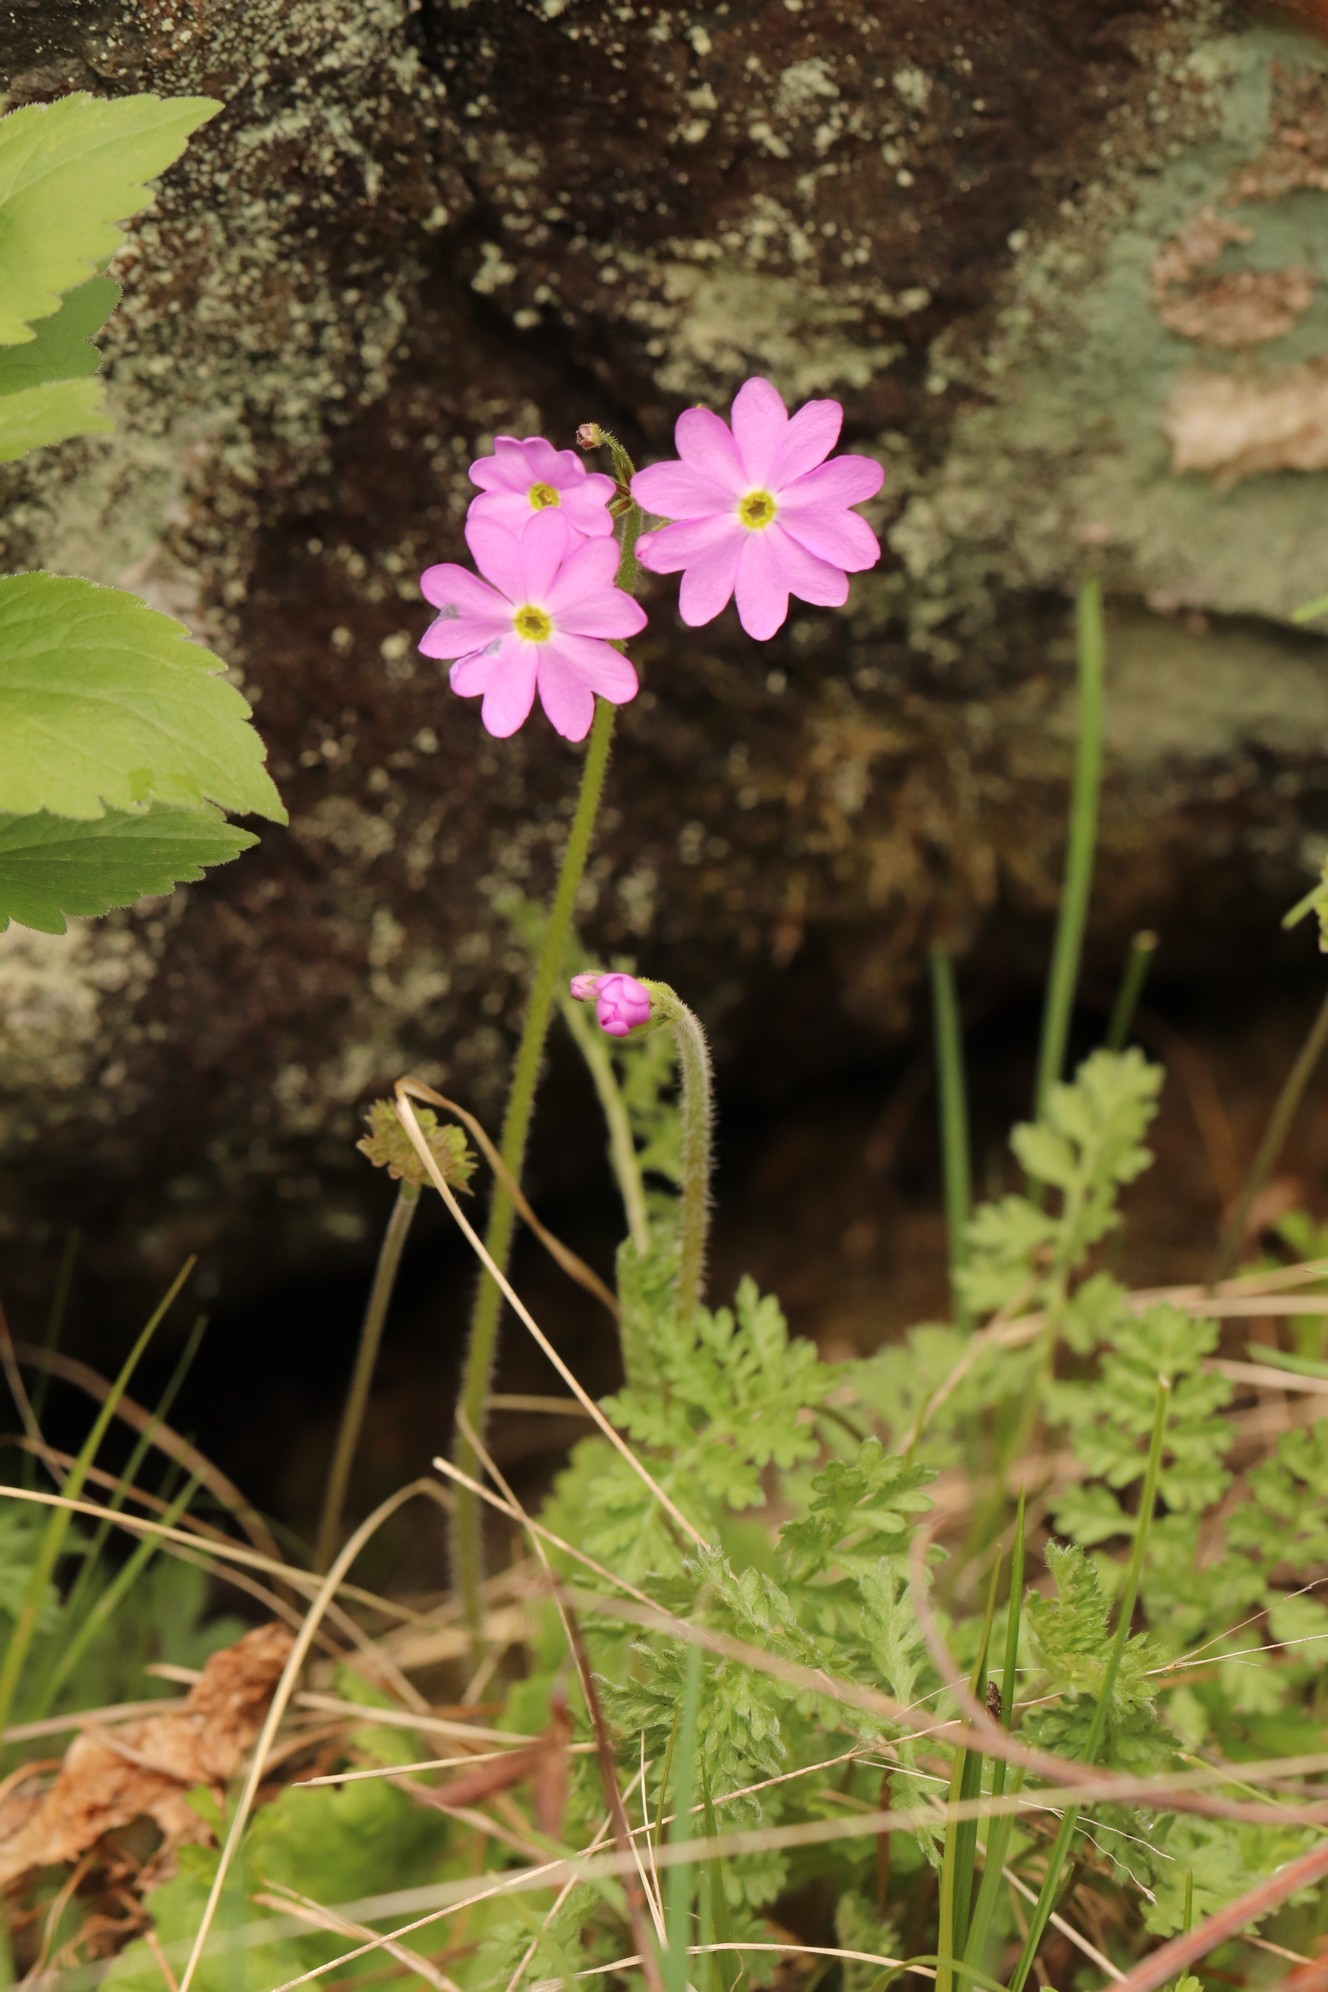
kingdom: Plantae
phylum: Tracheophyta
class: Magnoliopsida
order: Ericales
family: Primulaceae
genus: Primula
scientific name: Primula cortusoides
